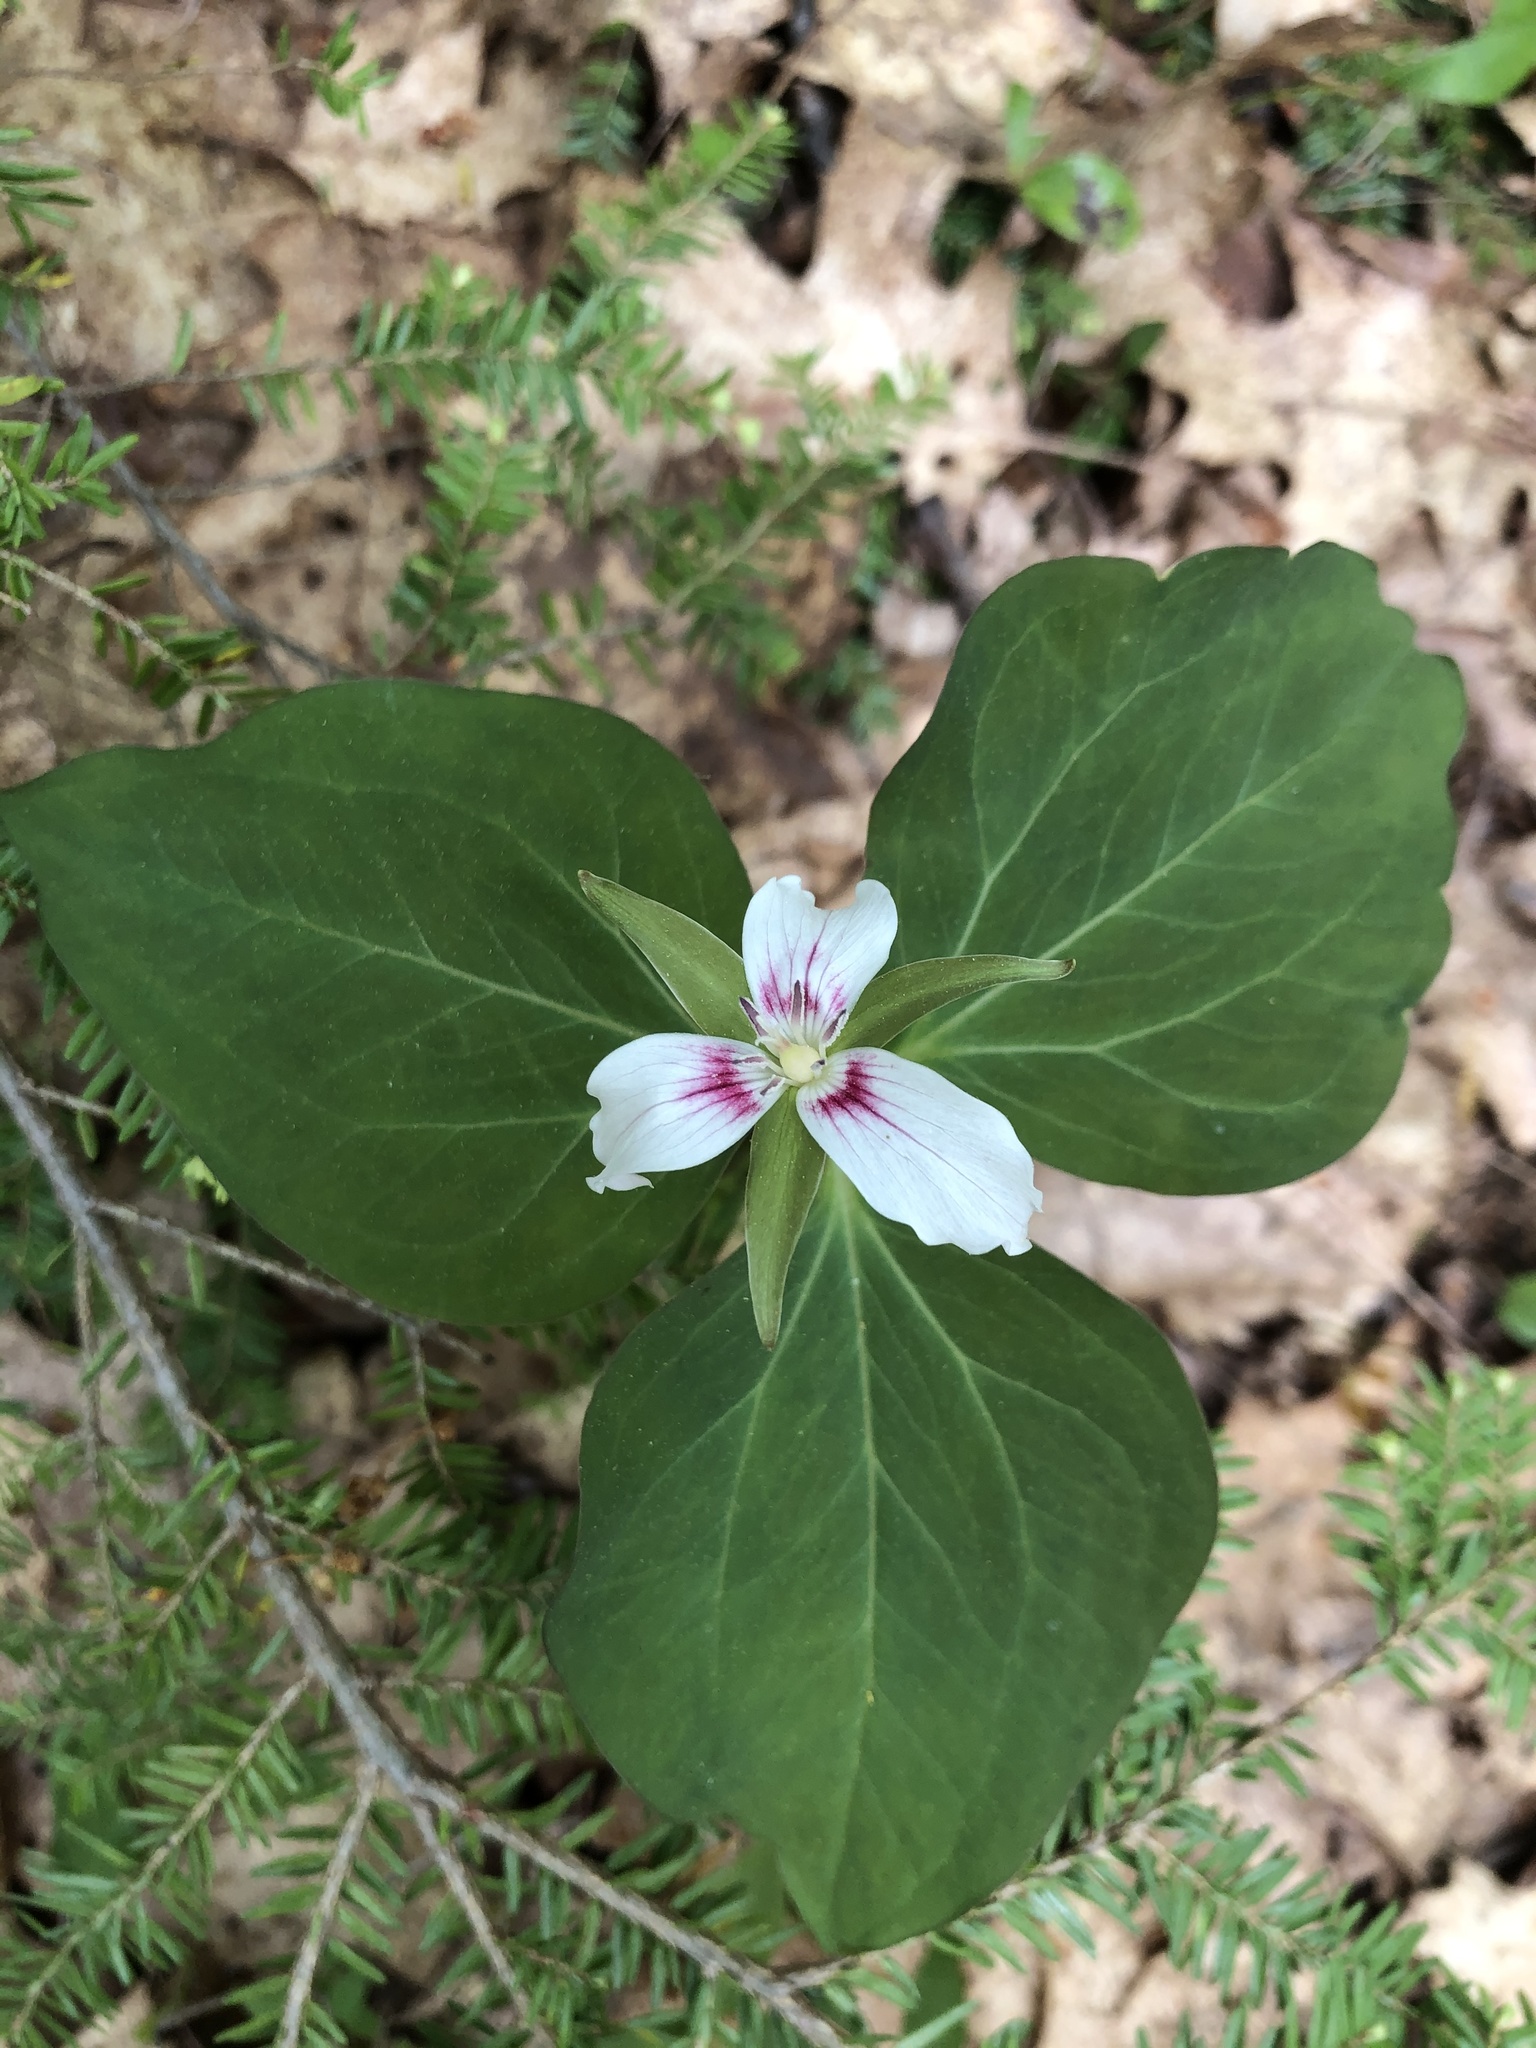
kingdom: Plantae
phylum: Tracheophyta
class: Liliopsida
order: Liliales
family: Melanthiaceae
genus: Trillium
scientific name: Trillium undulatum
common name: Paint trillium
